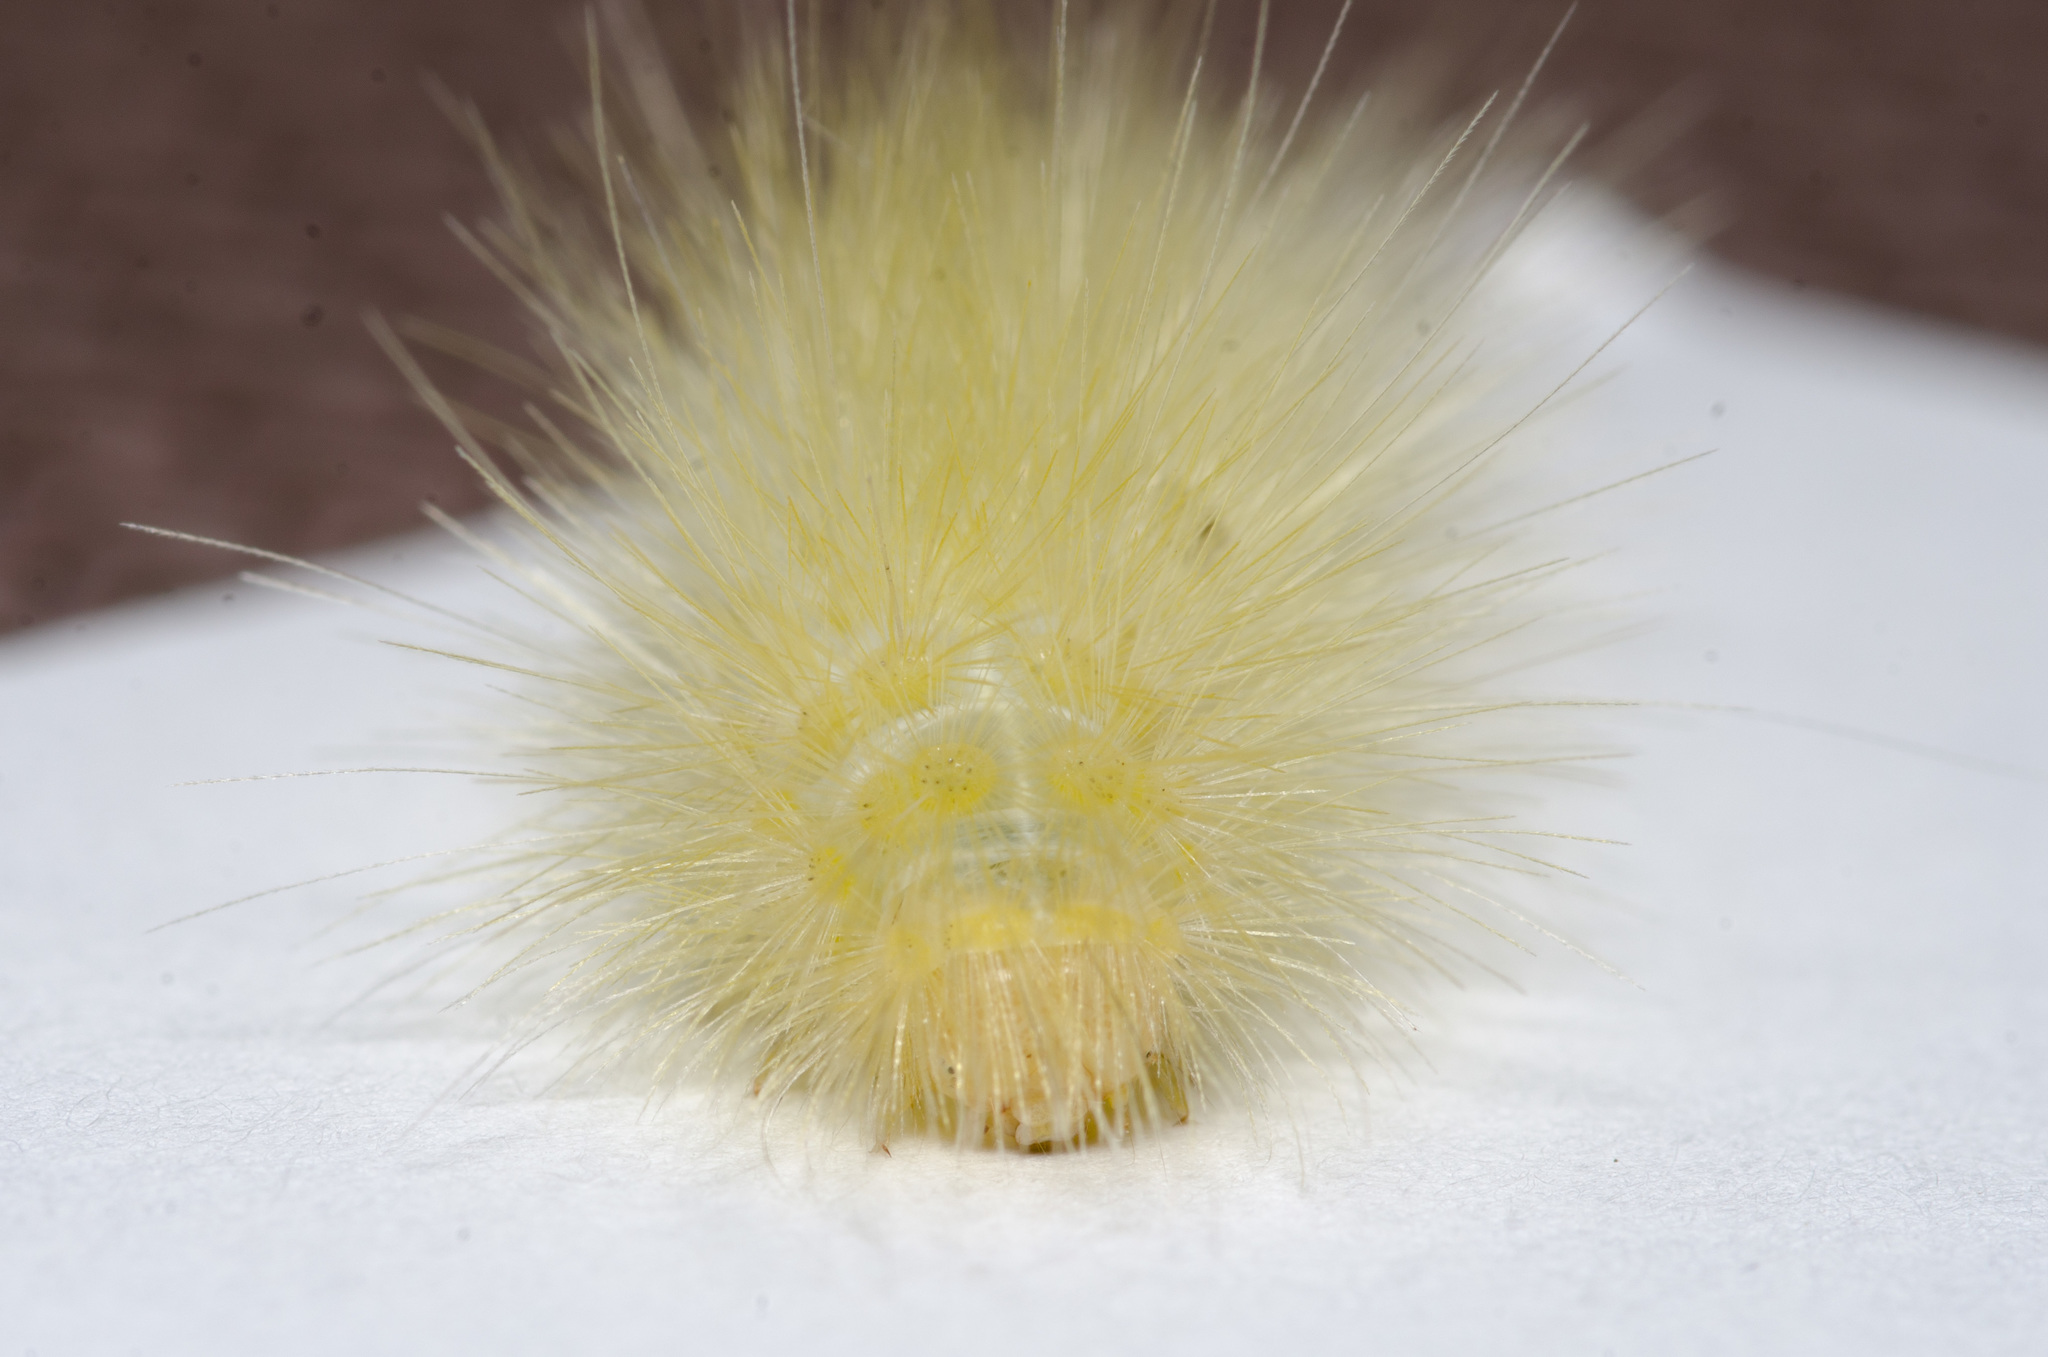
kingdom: Animalia
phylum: Arthropoda
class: Insecta
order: Lepidoptera
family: Erebidae
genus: Spilosoma
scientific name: Spilosoma virginica
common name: Virginia tiger moth
